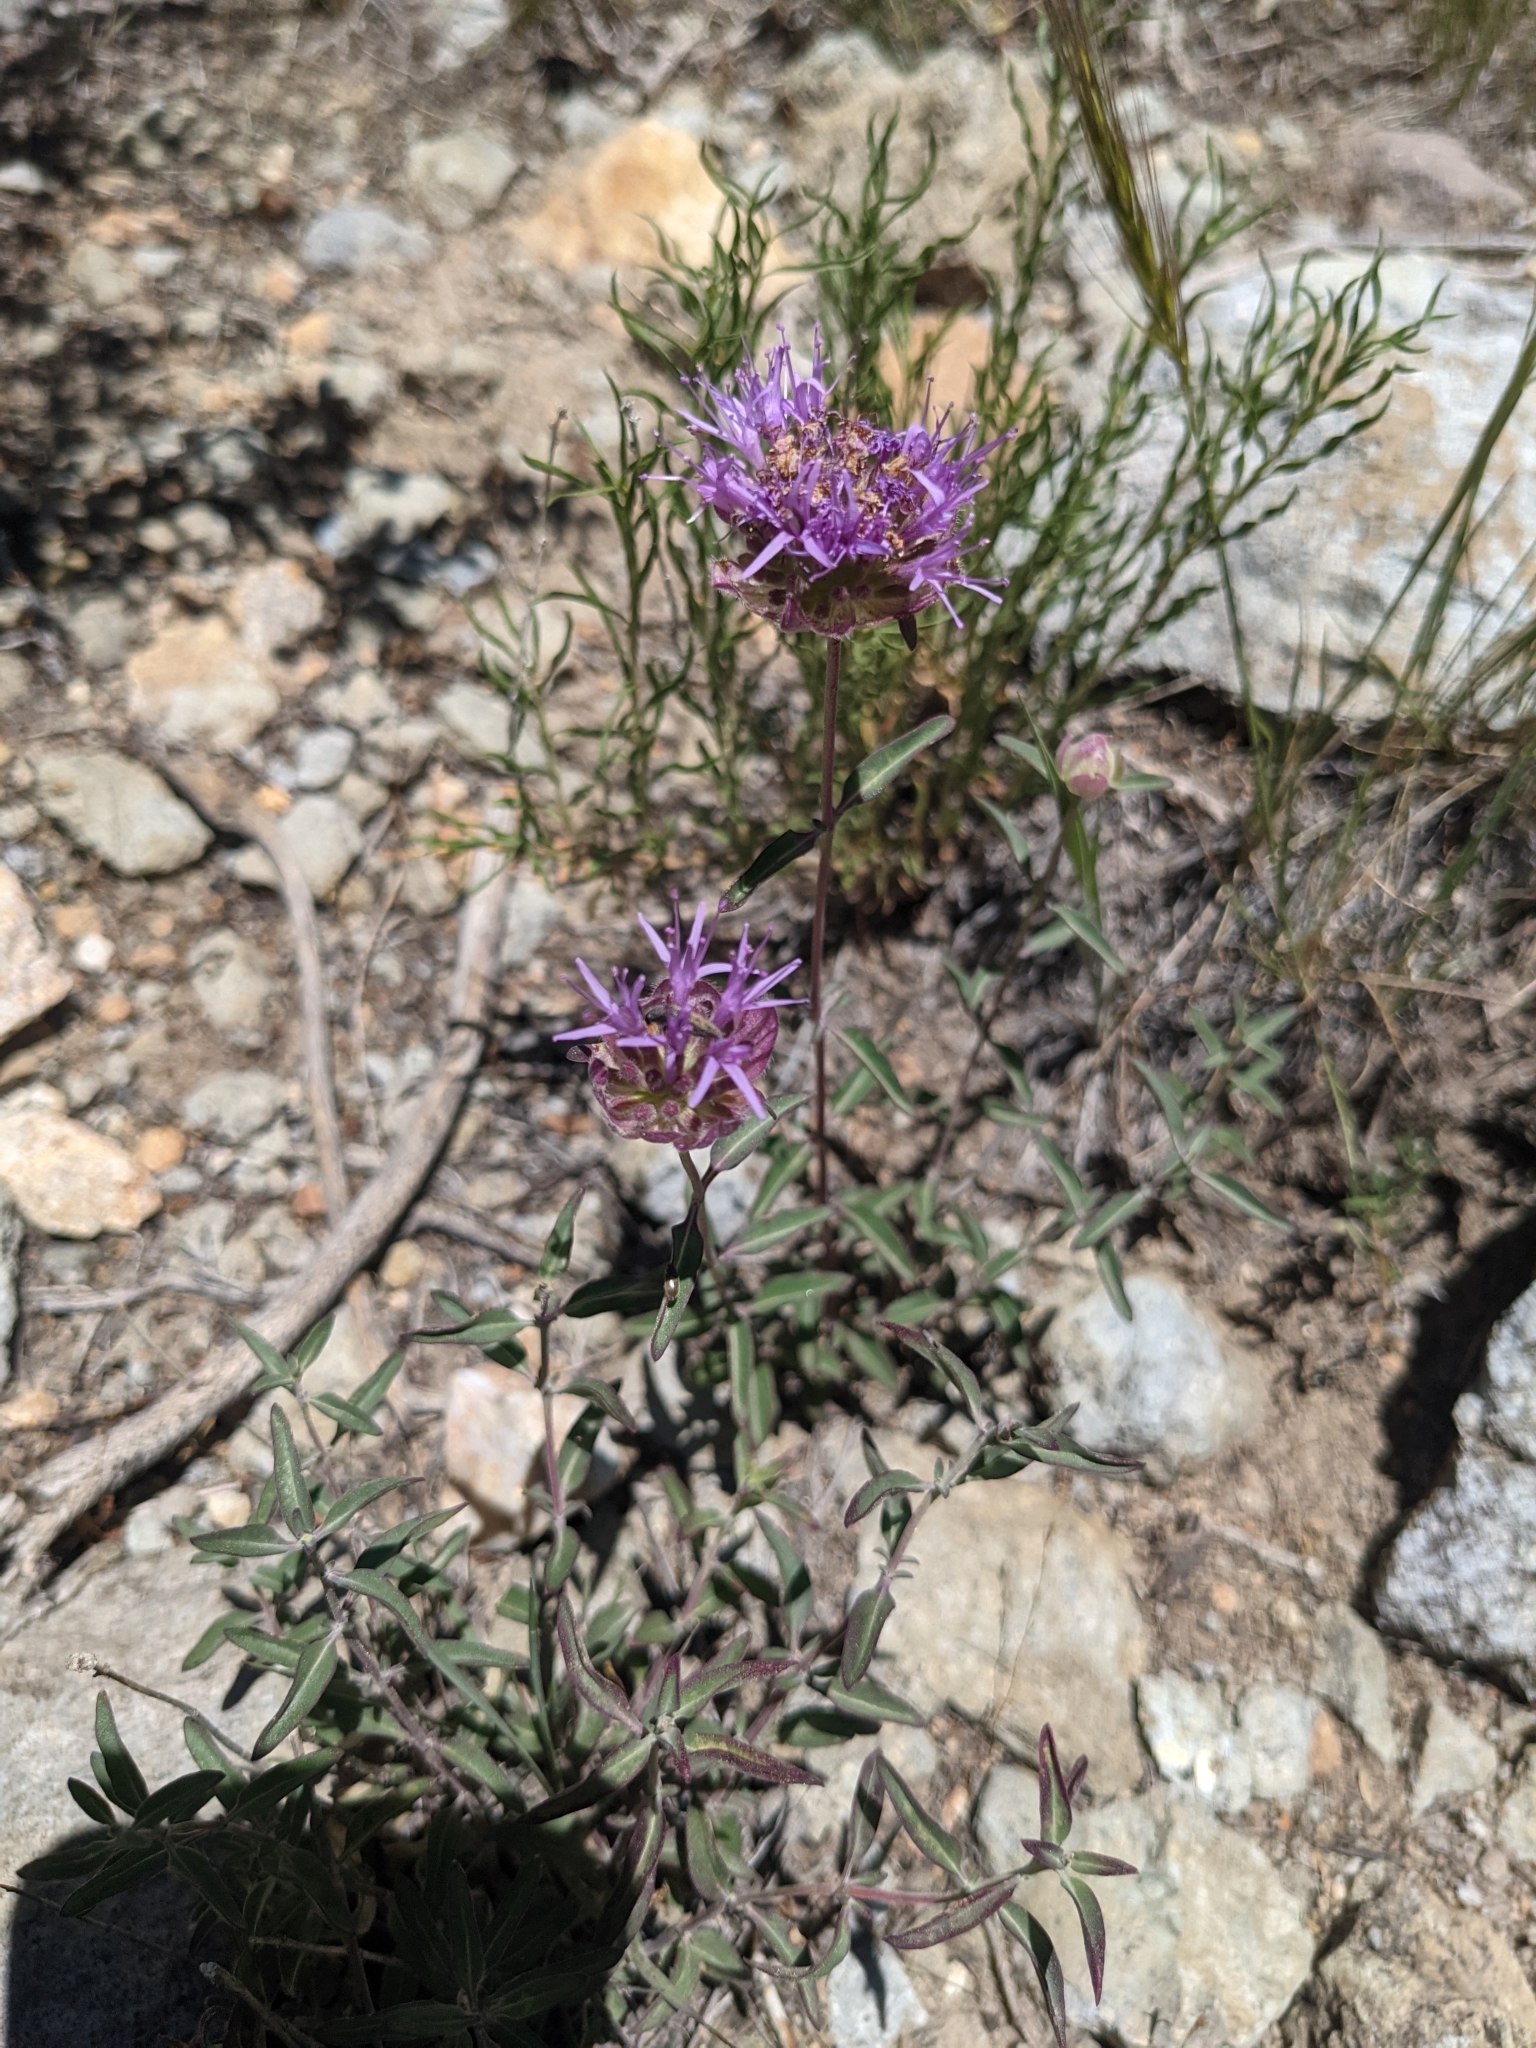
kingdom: Plantae
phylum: Tracheophyta
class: Magnoliopsida
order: Lamiales
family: Lamiaceae
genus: Monardella
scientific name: Monardella odoratissima
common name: Pacific monardella
